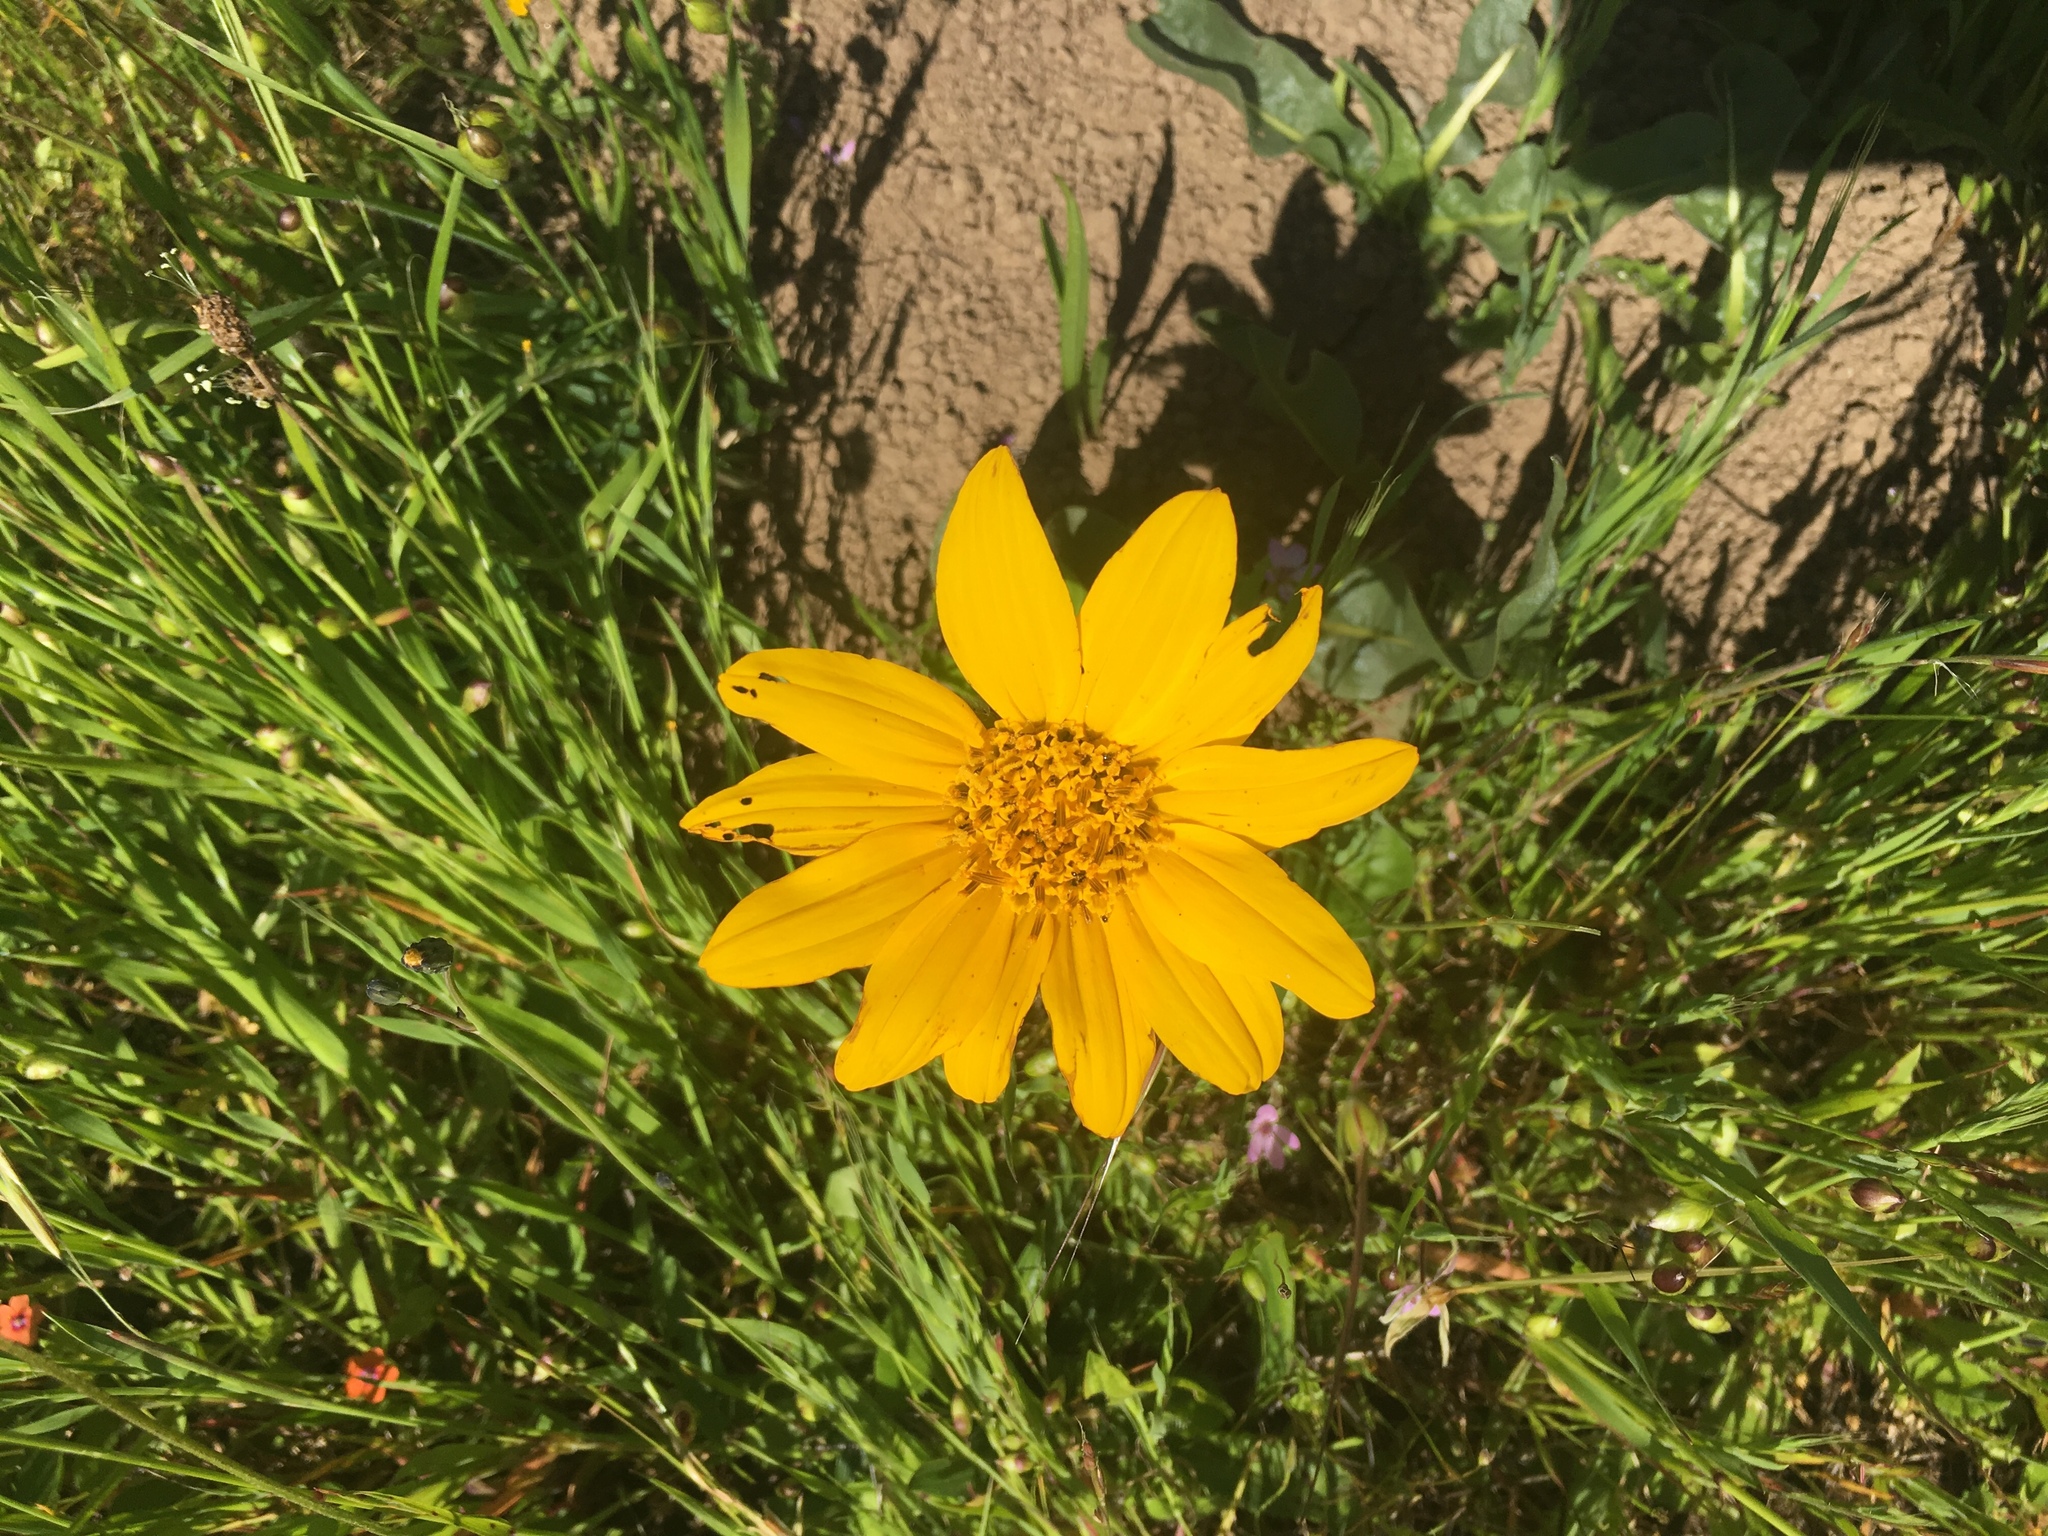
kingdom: Plantae
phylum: Tracheophyta
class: Magnoliopsida
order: Asterales
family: Asteraceae
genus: Wyethia
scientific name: Wyethia angustifolia
